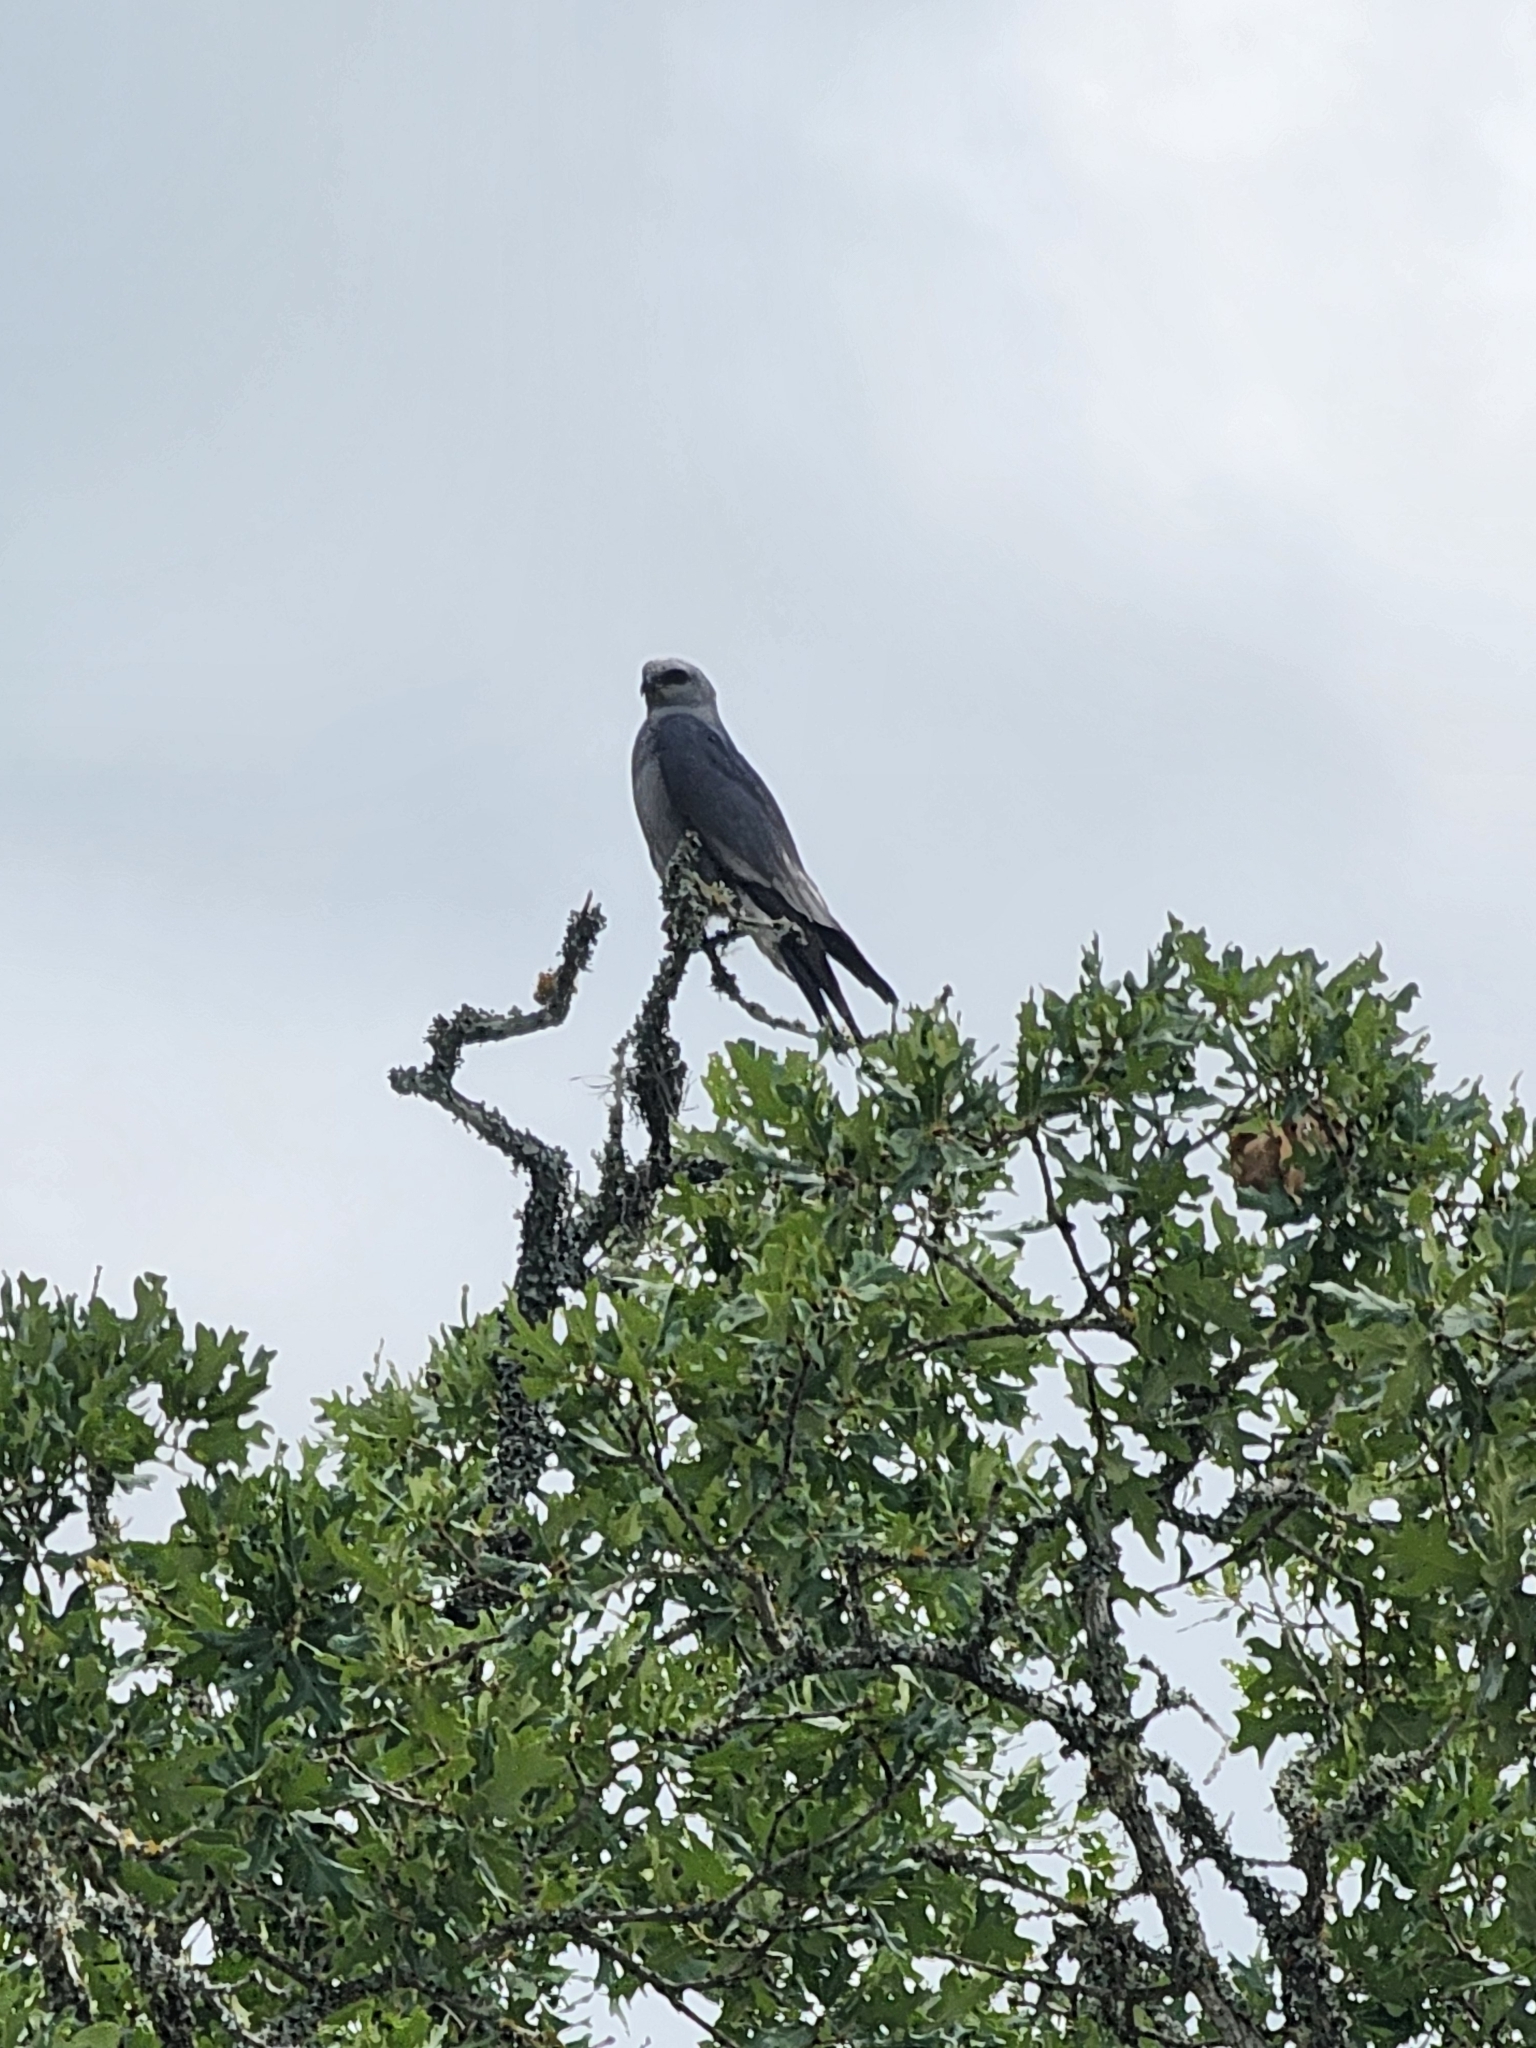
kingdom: Animalia
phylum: Chordata
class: Aves
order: Accipitriformes
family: Accipitridae
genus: Ictinia
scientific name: Ictinia mississippiensis
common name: Mississippi kite
